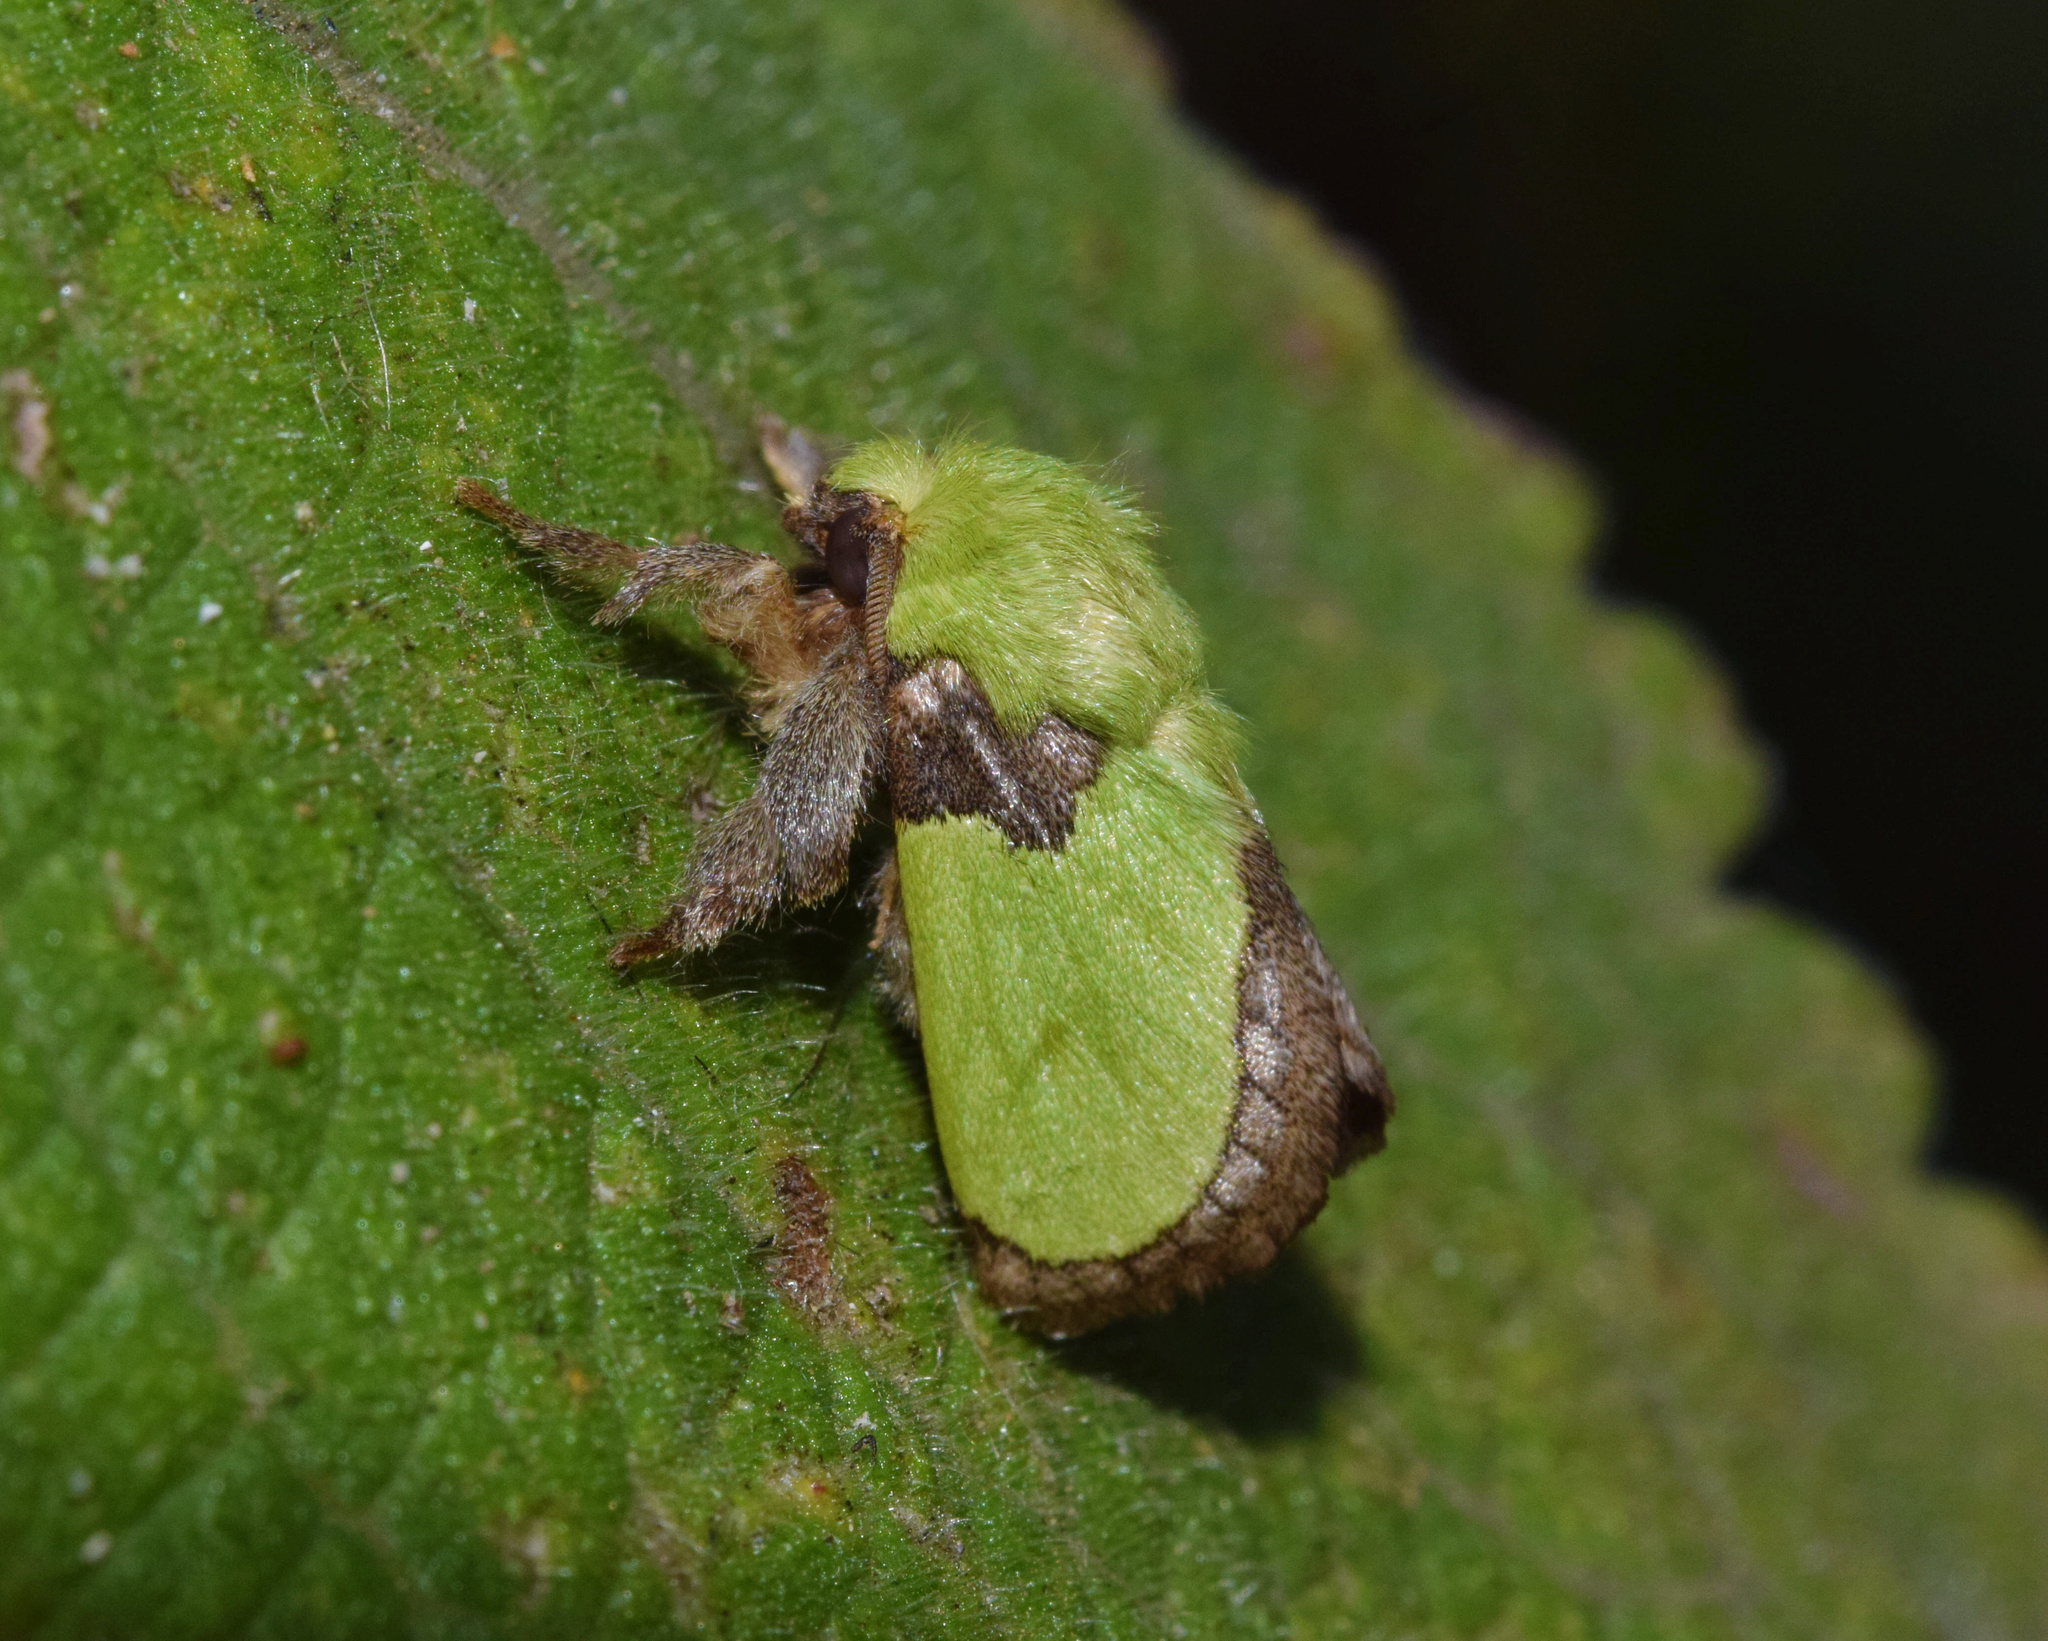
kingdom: Animalia
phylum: Arthropoda
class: Insecta
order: Lepidoptera
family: Limacodidae
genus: Parasa
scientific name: Parasa vivida
